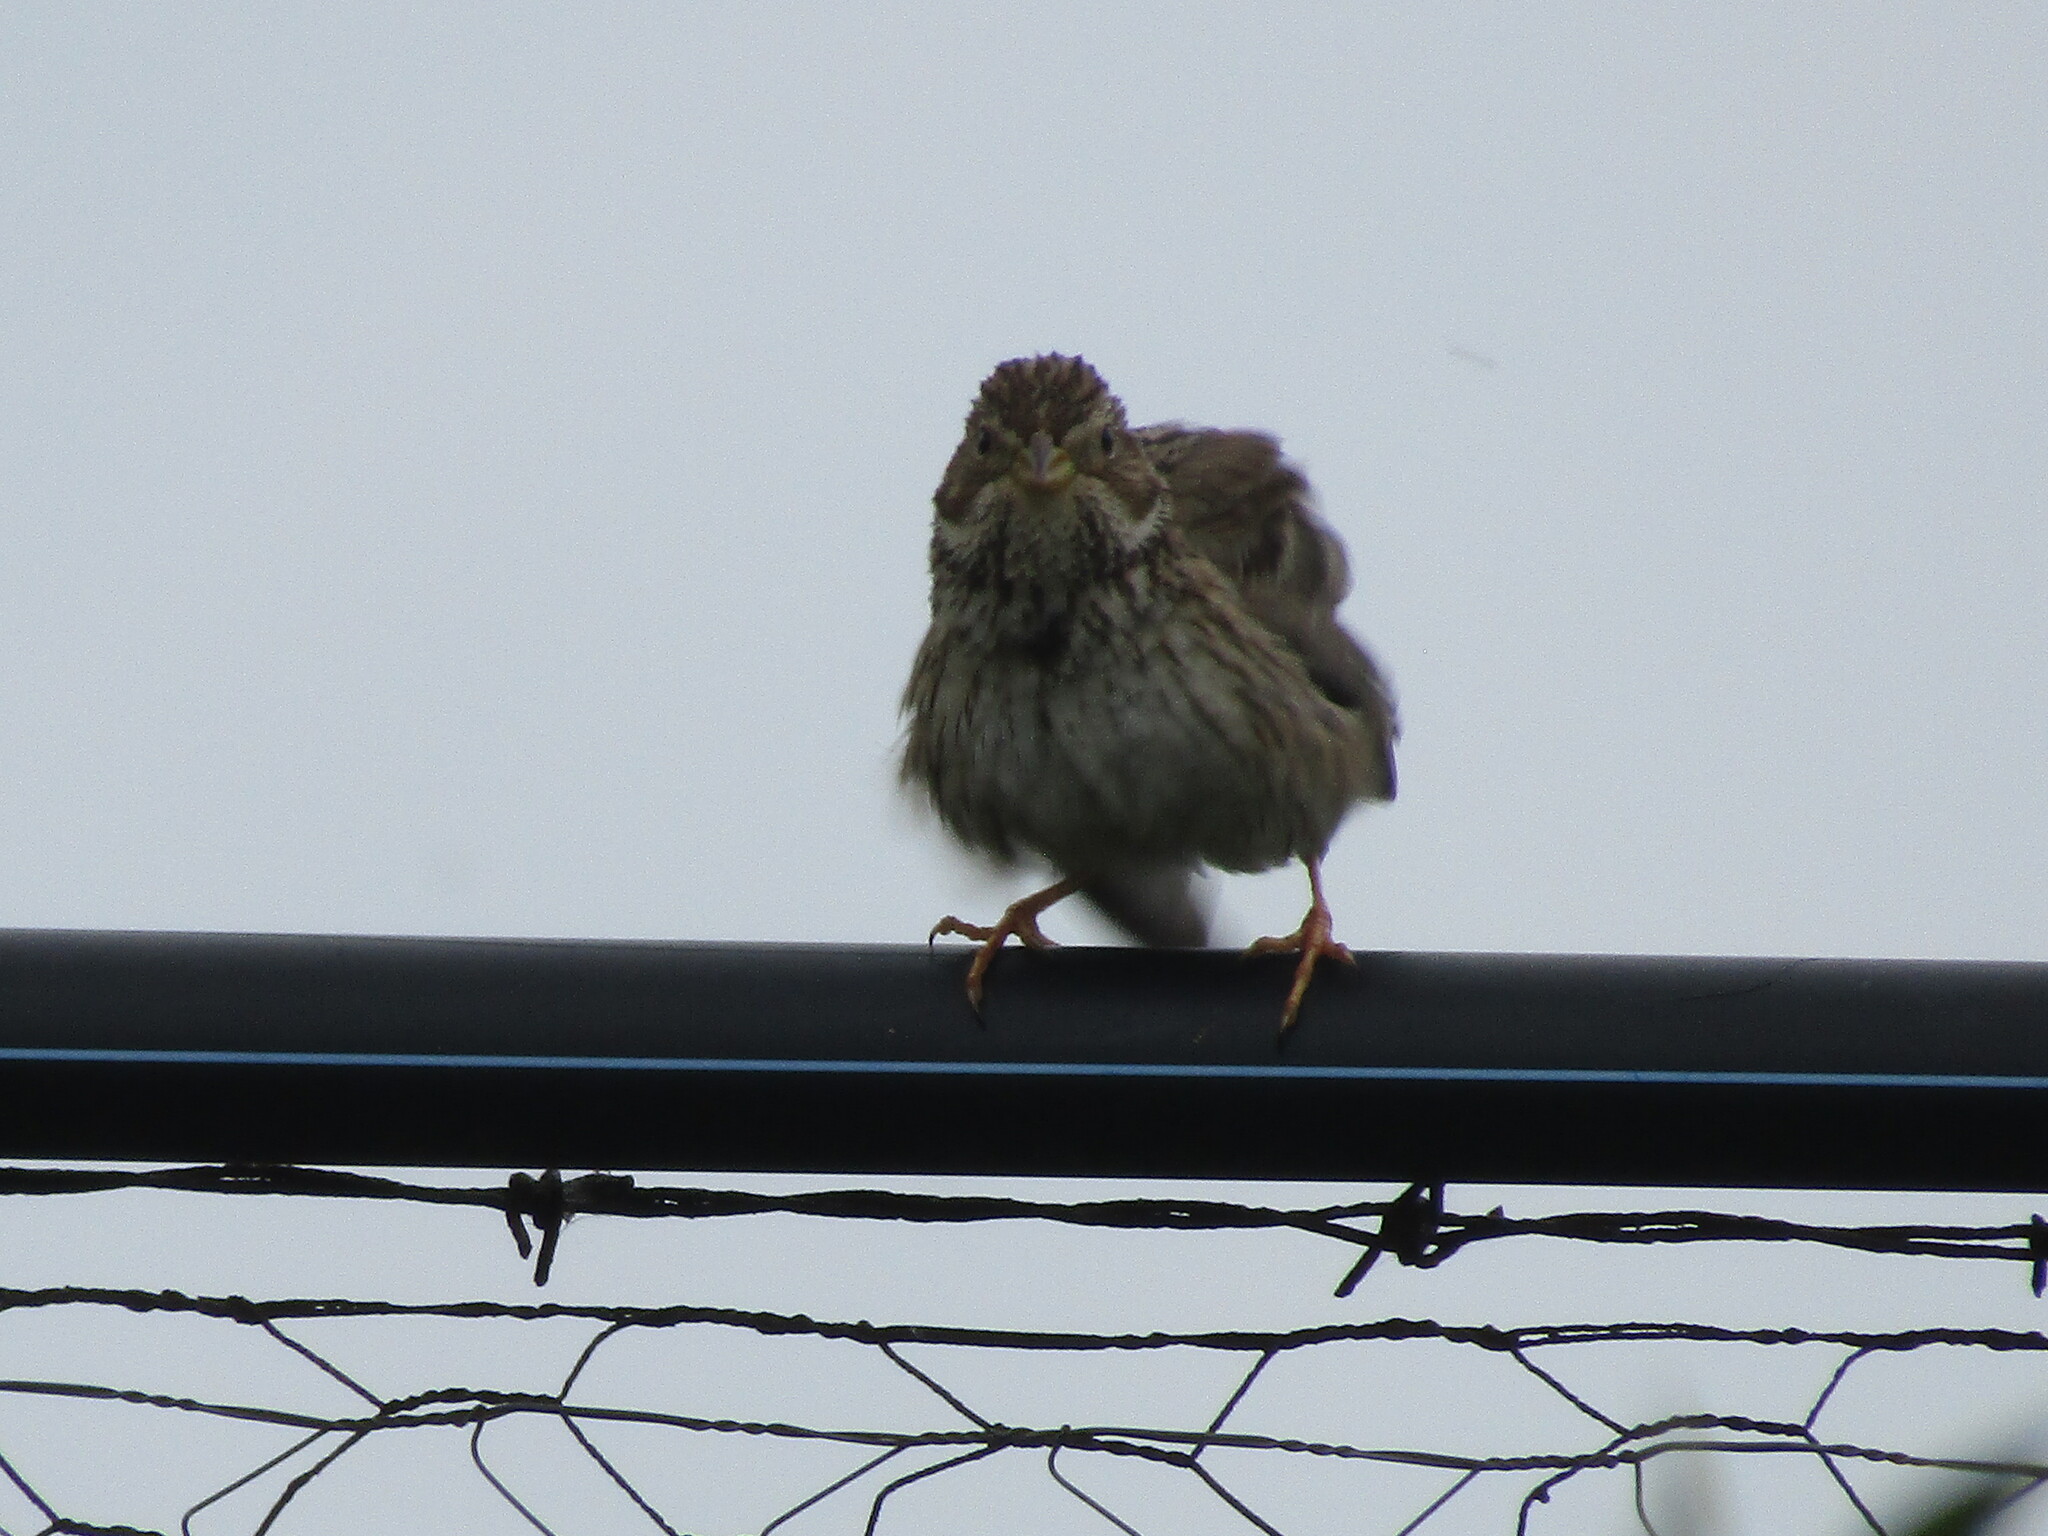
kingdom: Animalia
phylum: Chordata
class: Aves
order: Passeriformes
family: Emberizidae
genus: Emberiza
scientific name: Emberiza calandra
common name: Corn bunting
